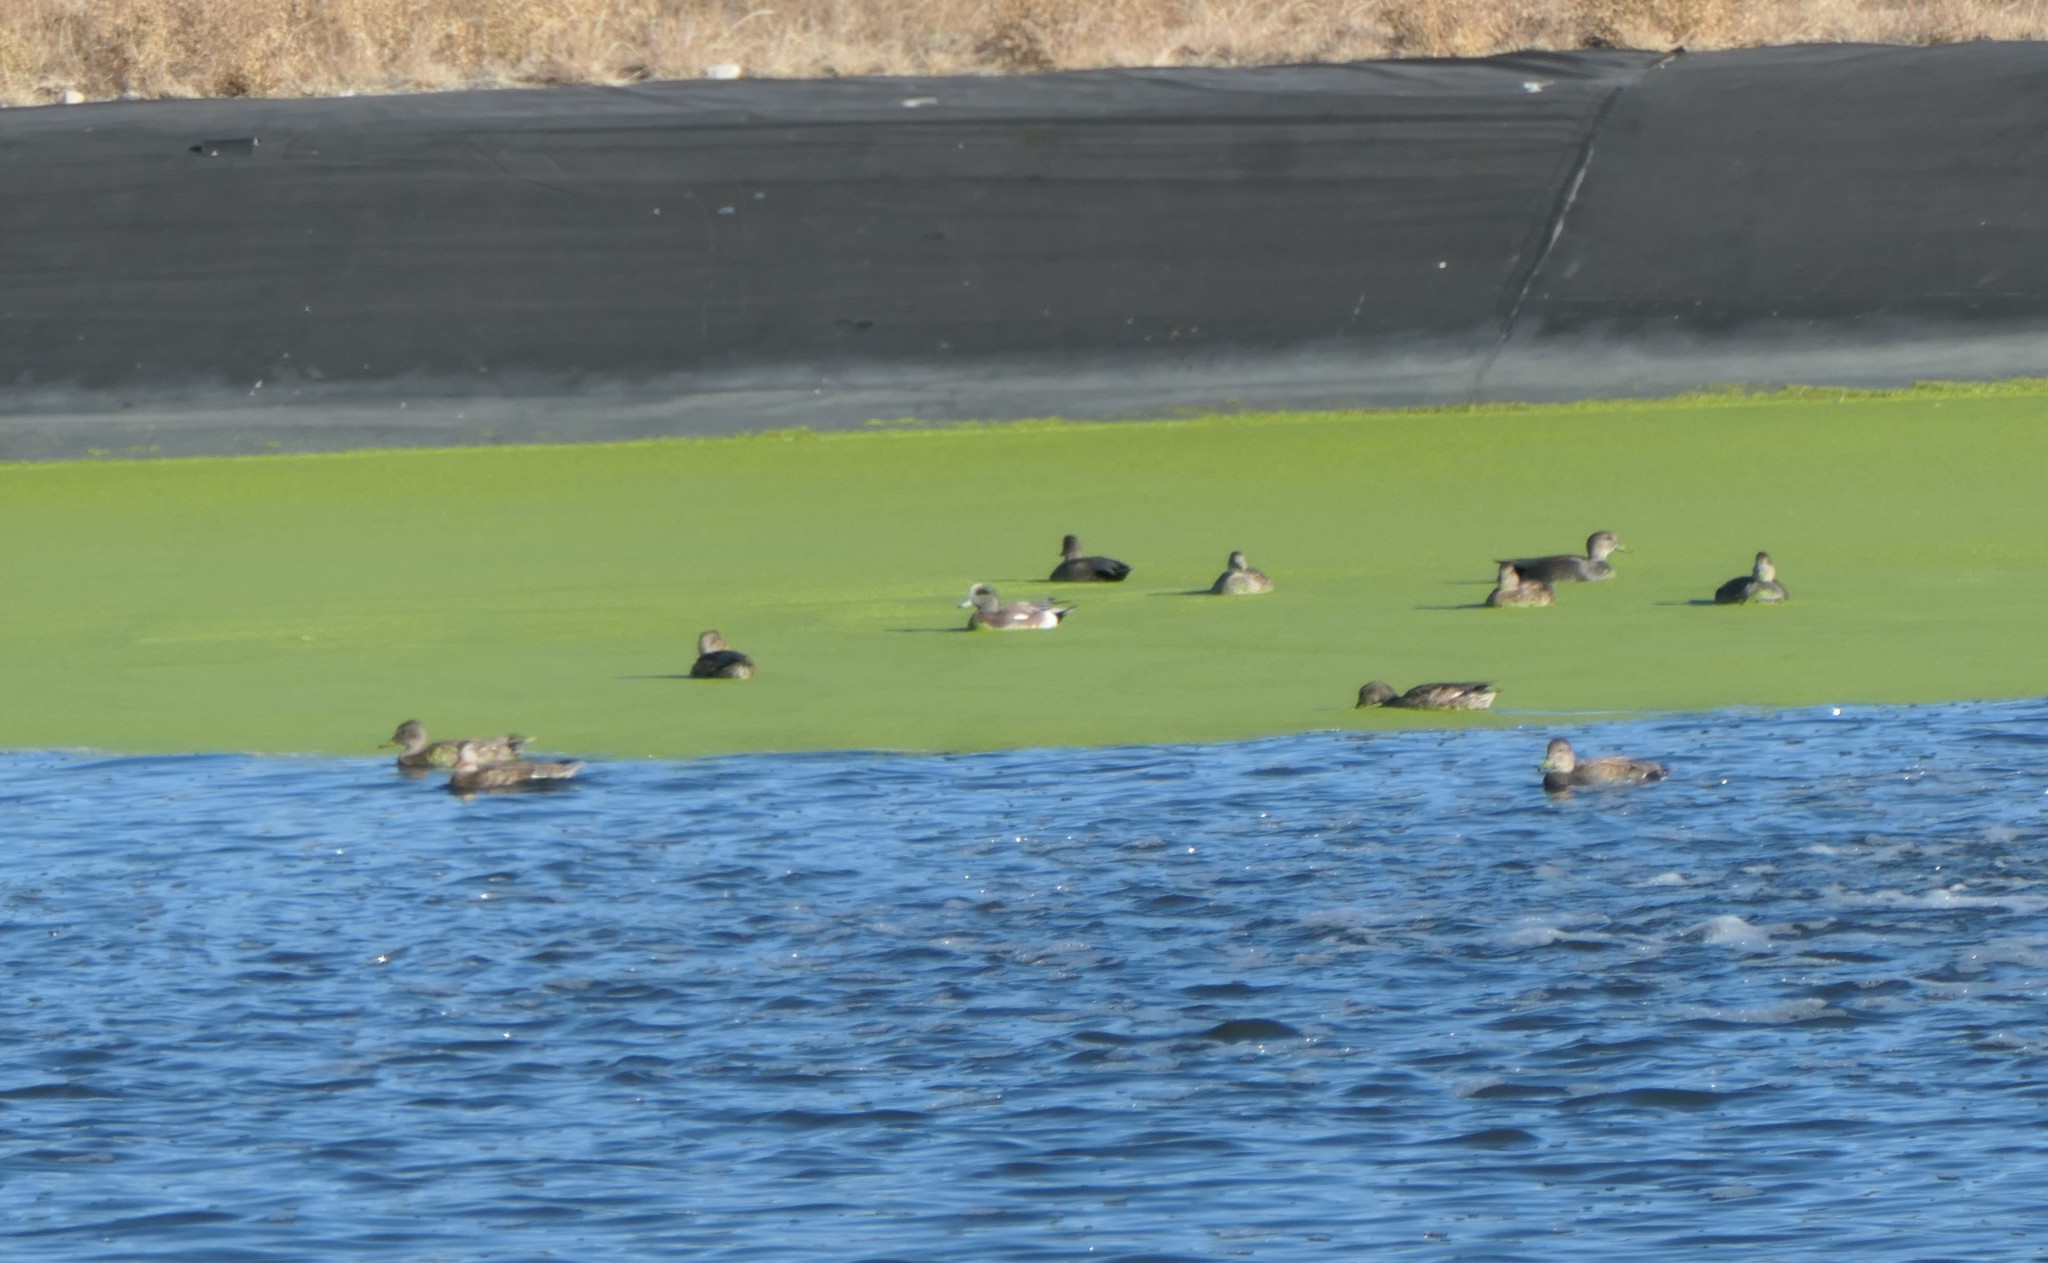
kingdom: Animalia
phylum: Chordata
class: Aves
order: Anseriformes
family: Anatidae
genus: Mareca
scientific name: Mareca americana
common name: American wigeon
